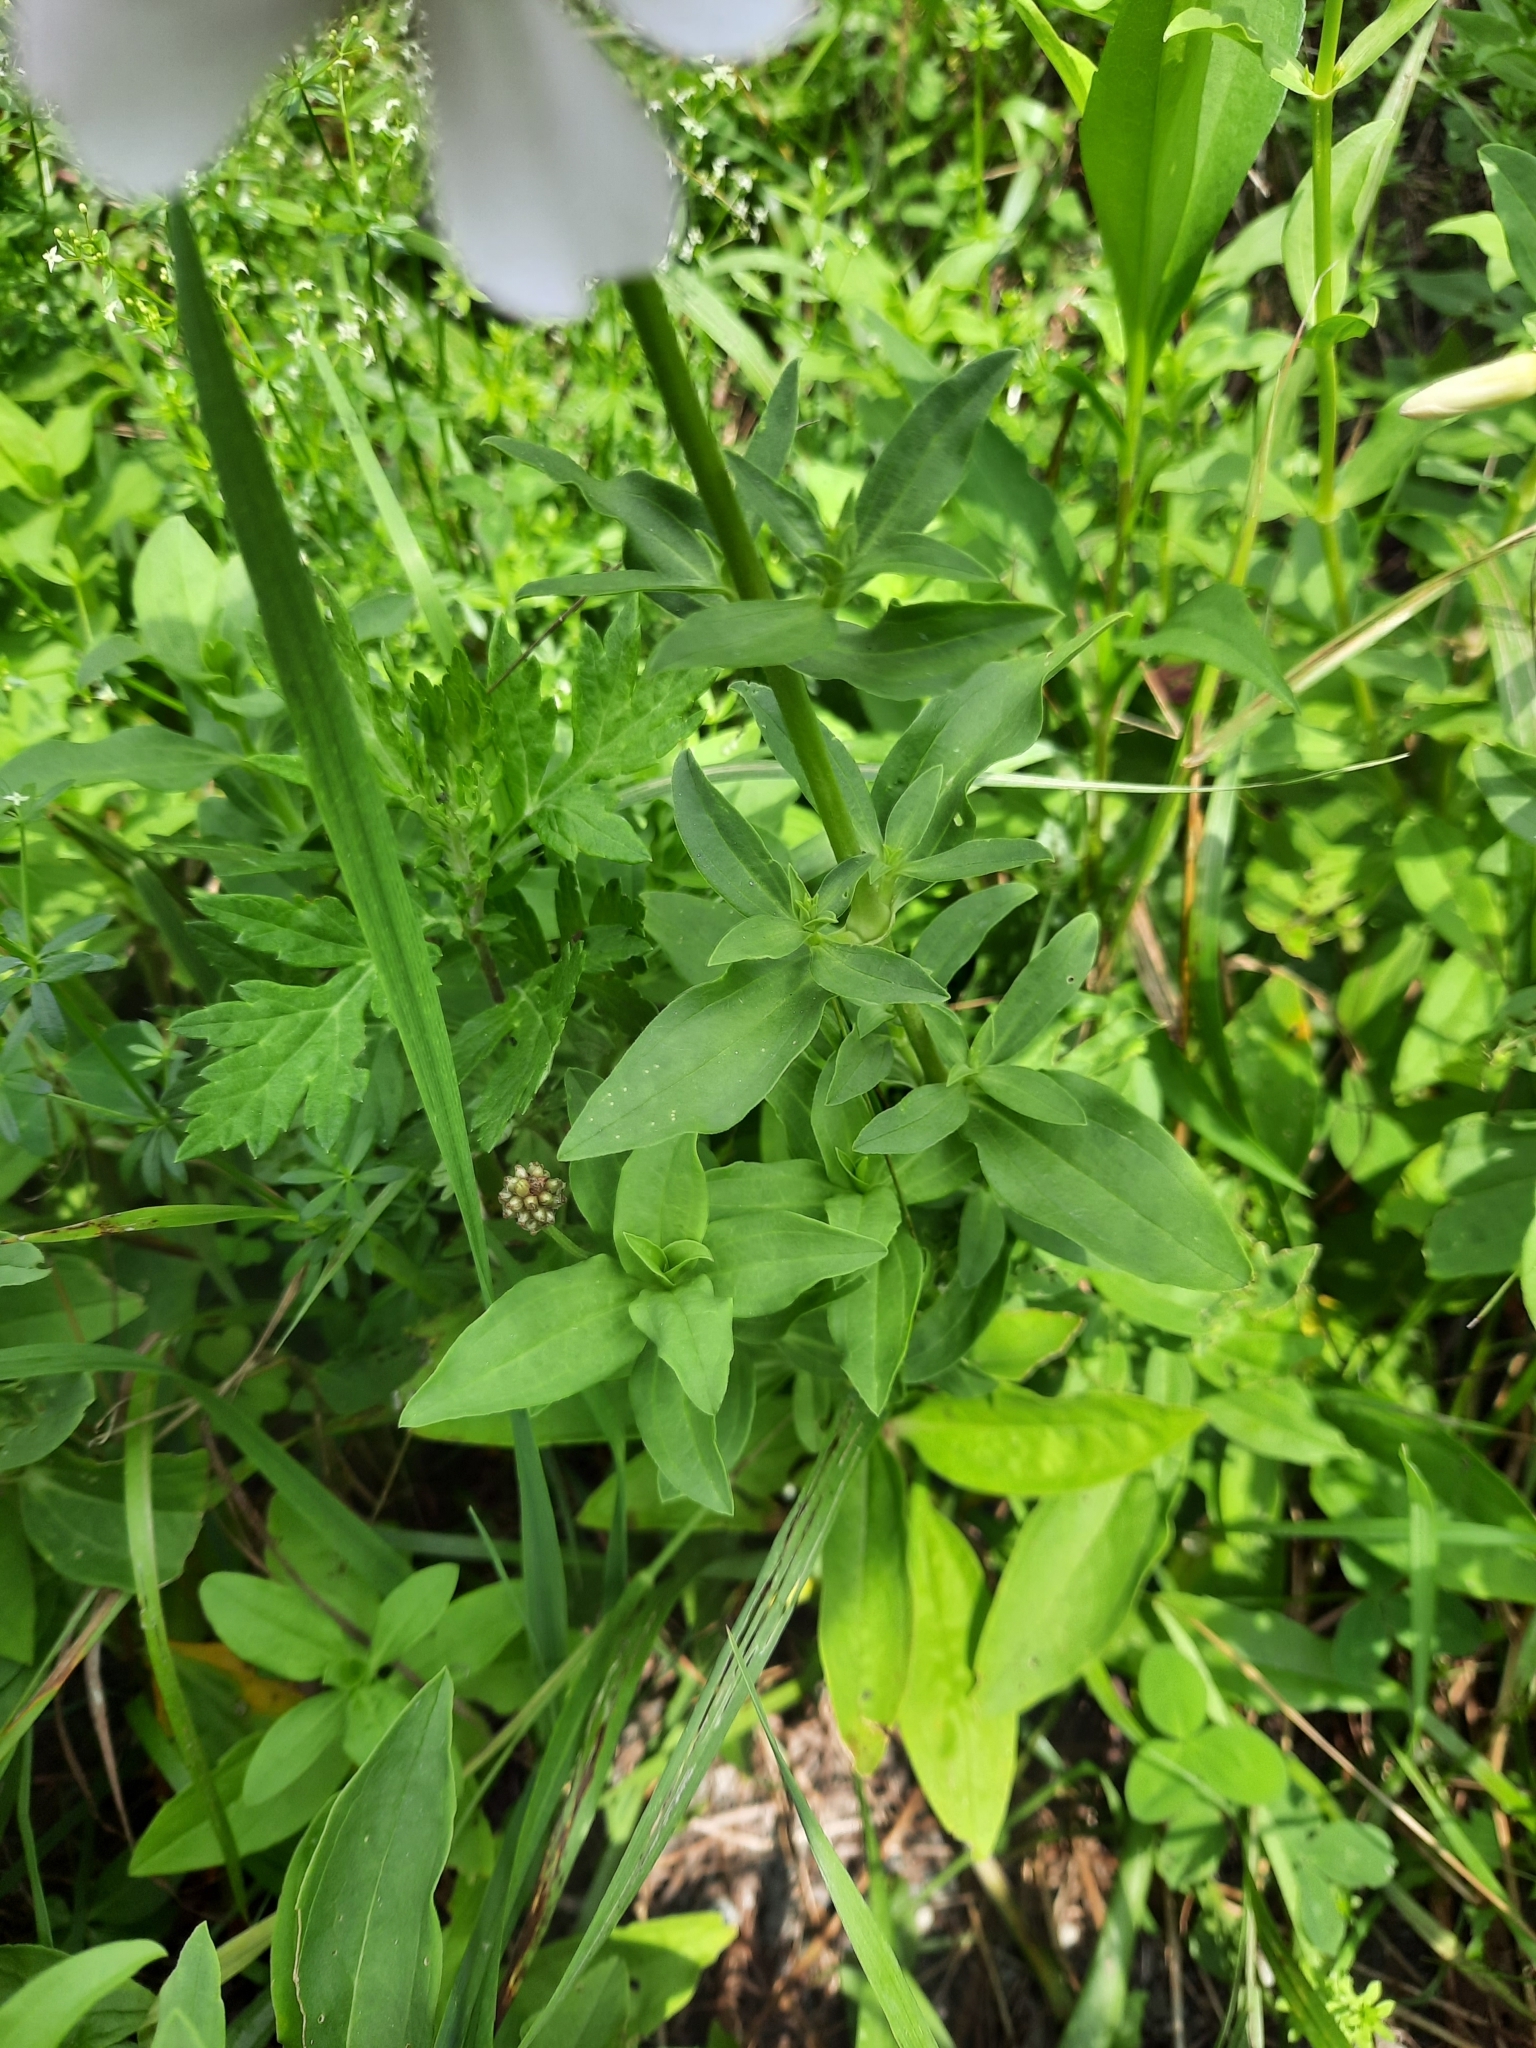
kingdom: Plantae
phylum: Tracheophyta
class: Magnoliopsida
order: Caryophyllales
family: Caryophyllaceae
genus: Saponaria
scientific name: Saponaria officinalis
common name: Soapwort
